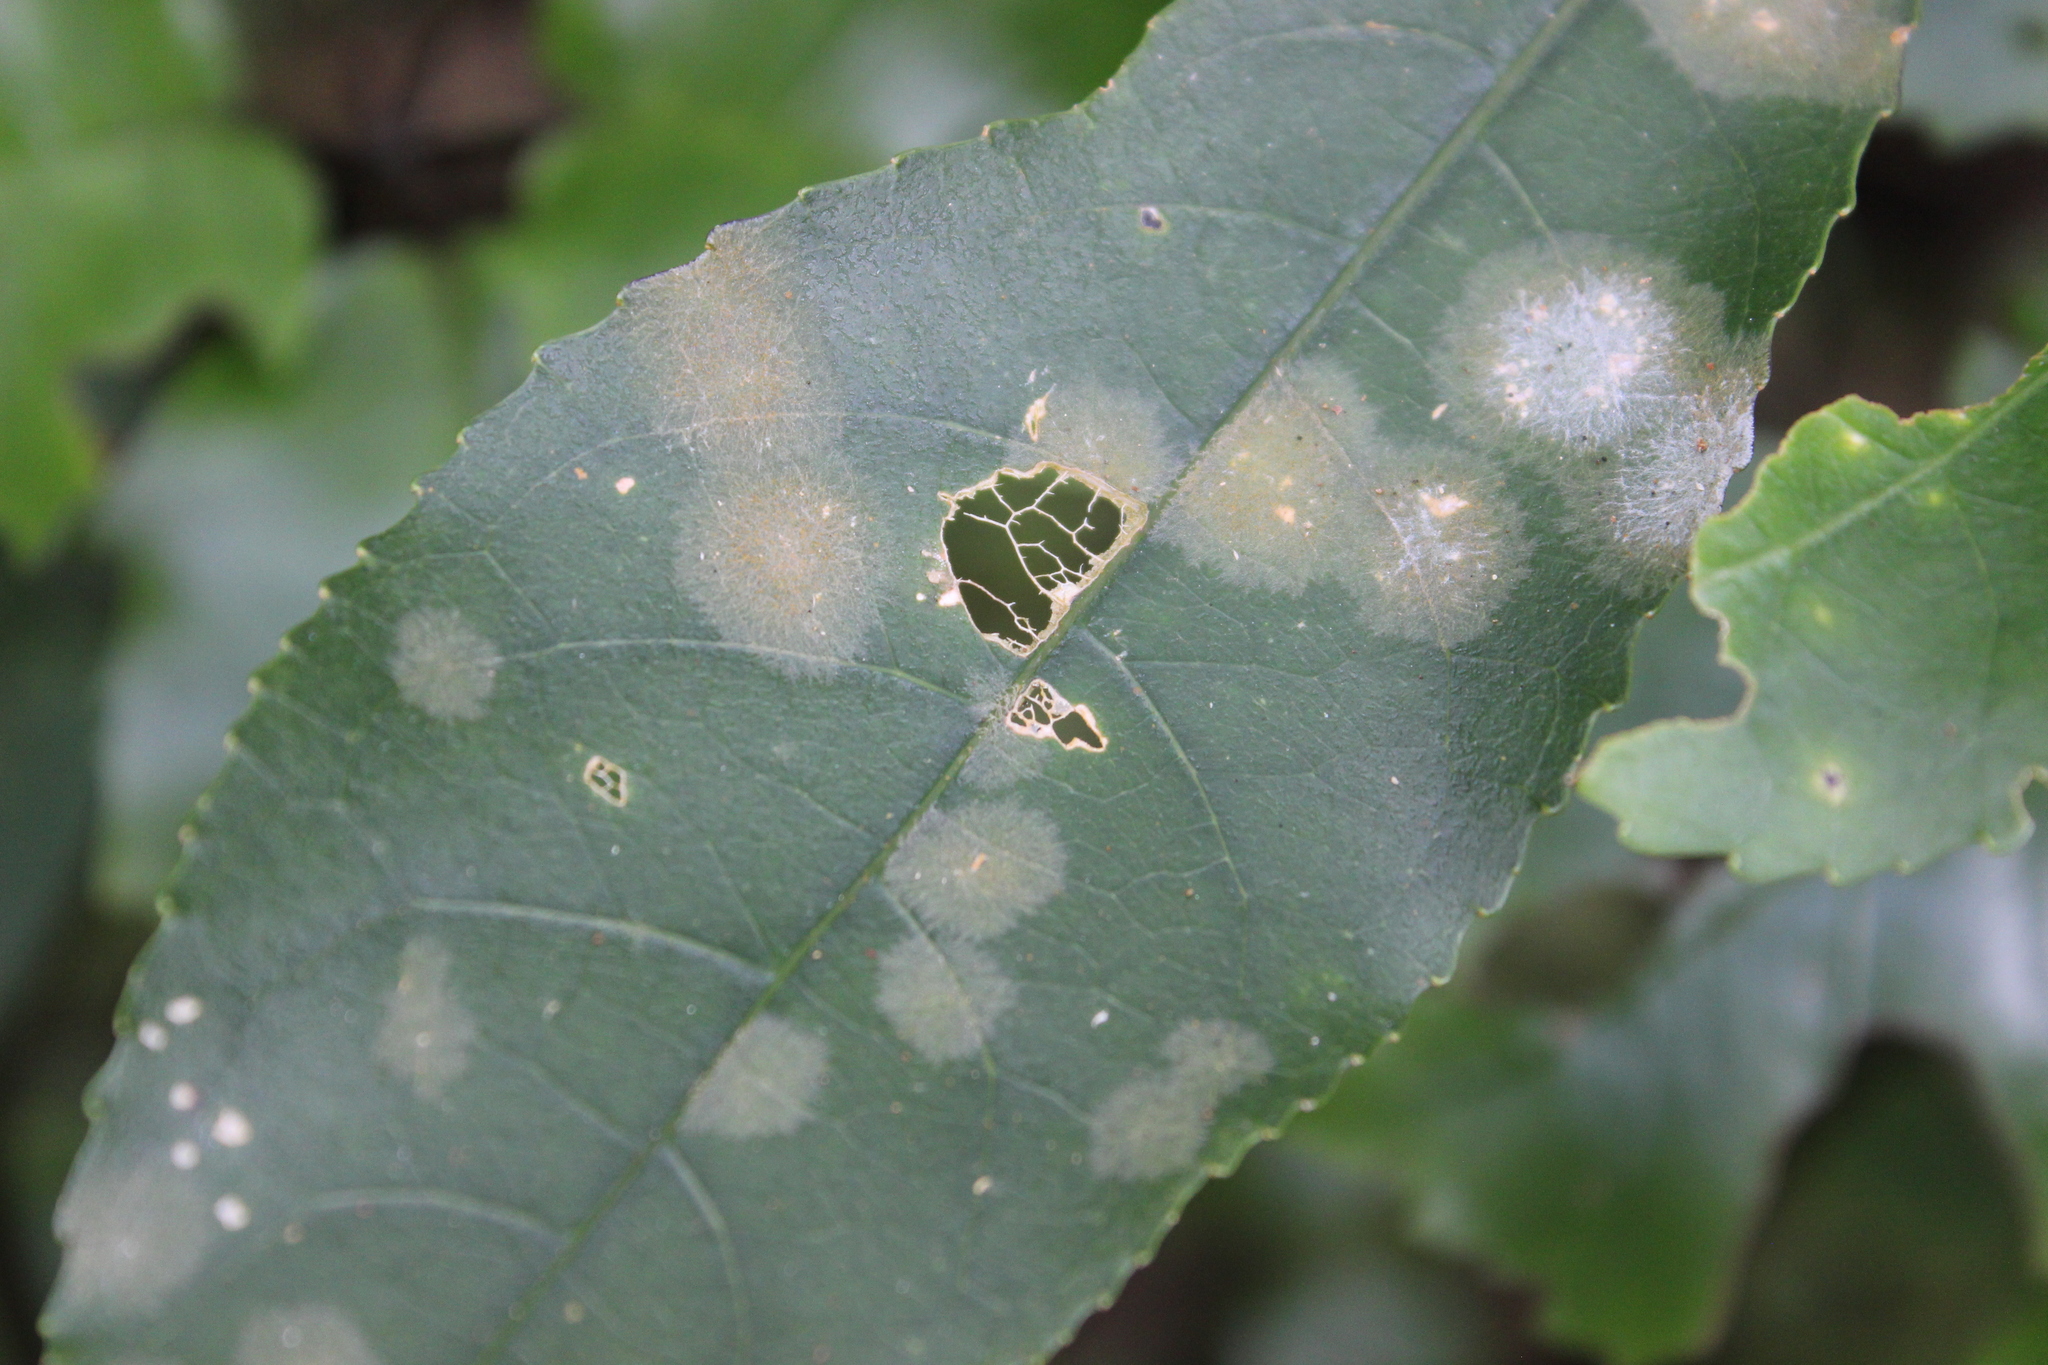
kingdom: Plantae
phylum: Tracheophyta
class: Magnoliopsida
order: Malpighiales
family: Violaceae
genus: Melicytus
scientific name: Melicytus ramiflorus
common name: Mahoe
